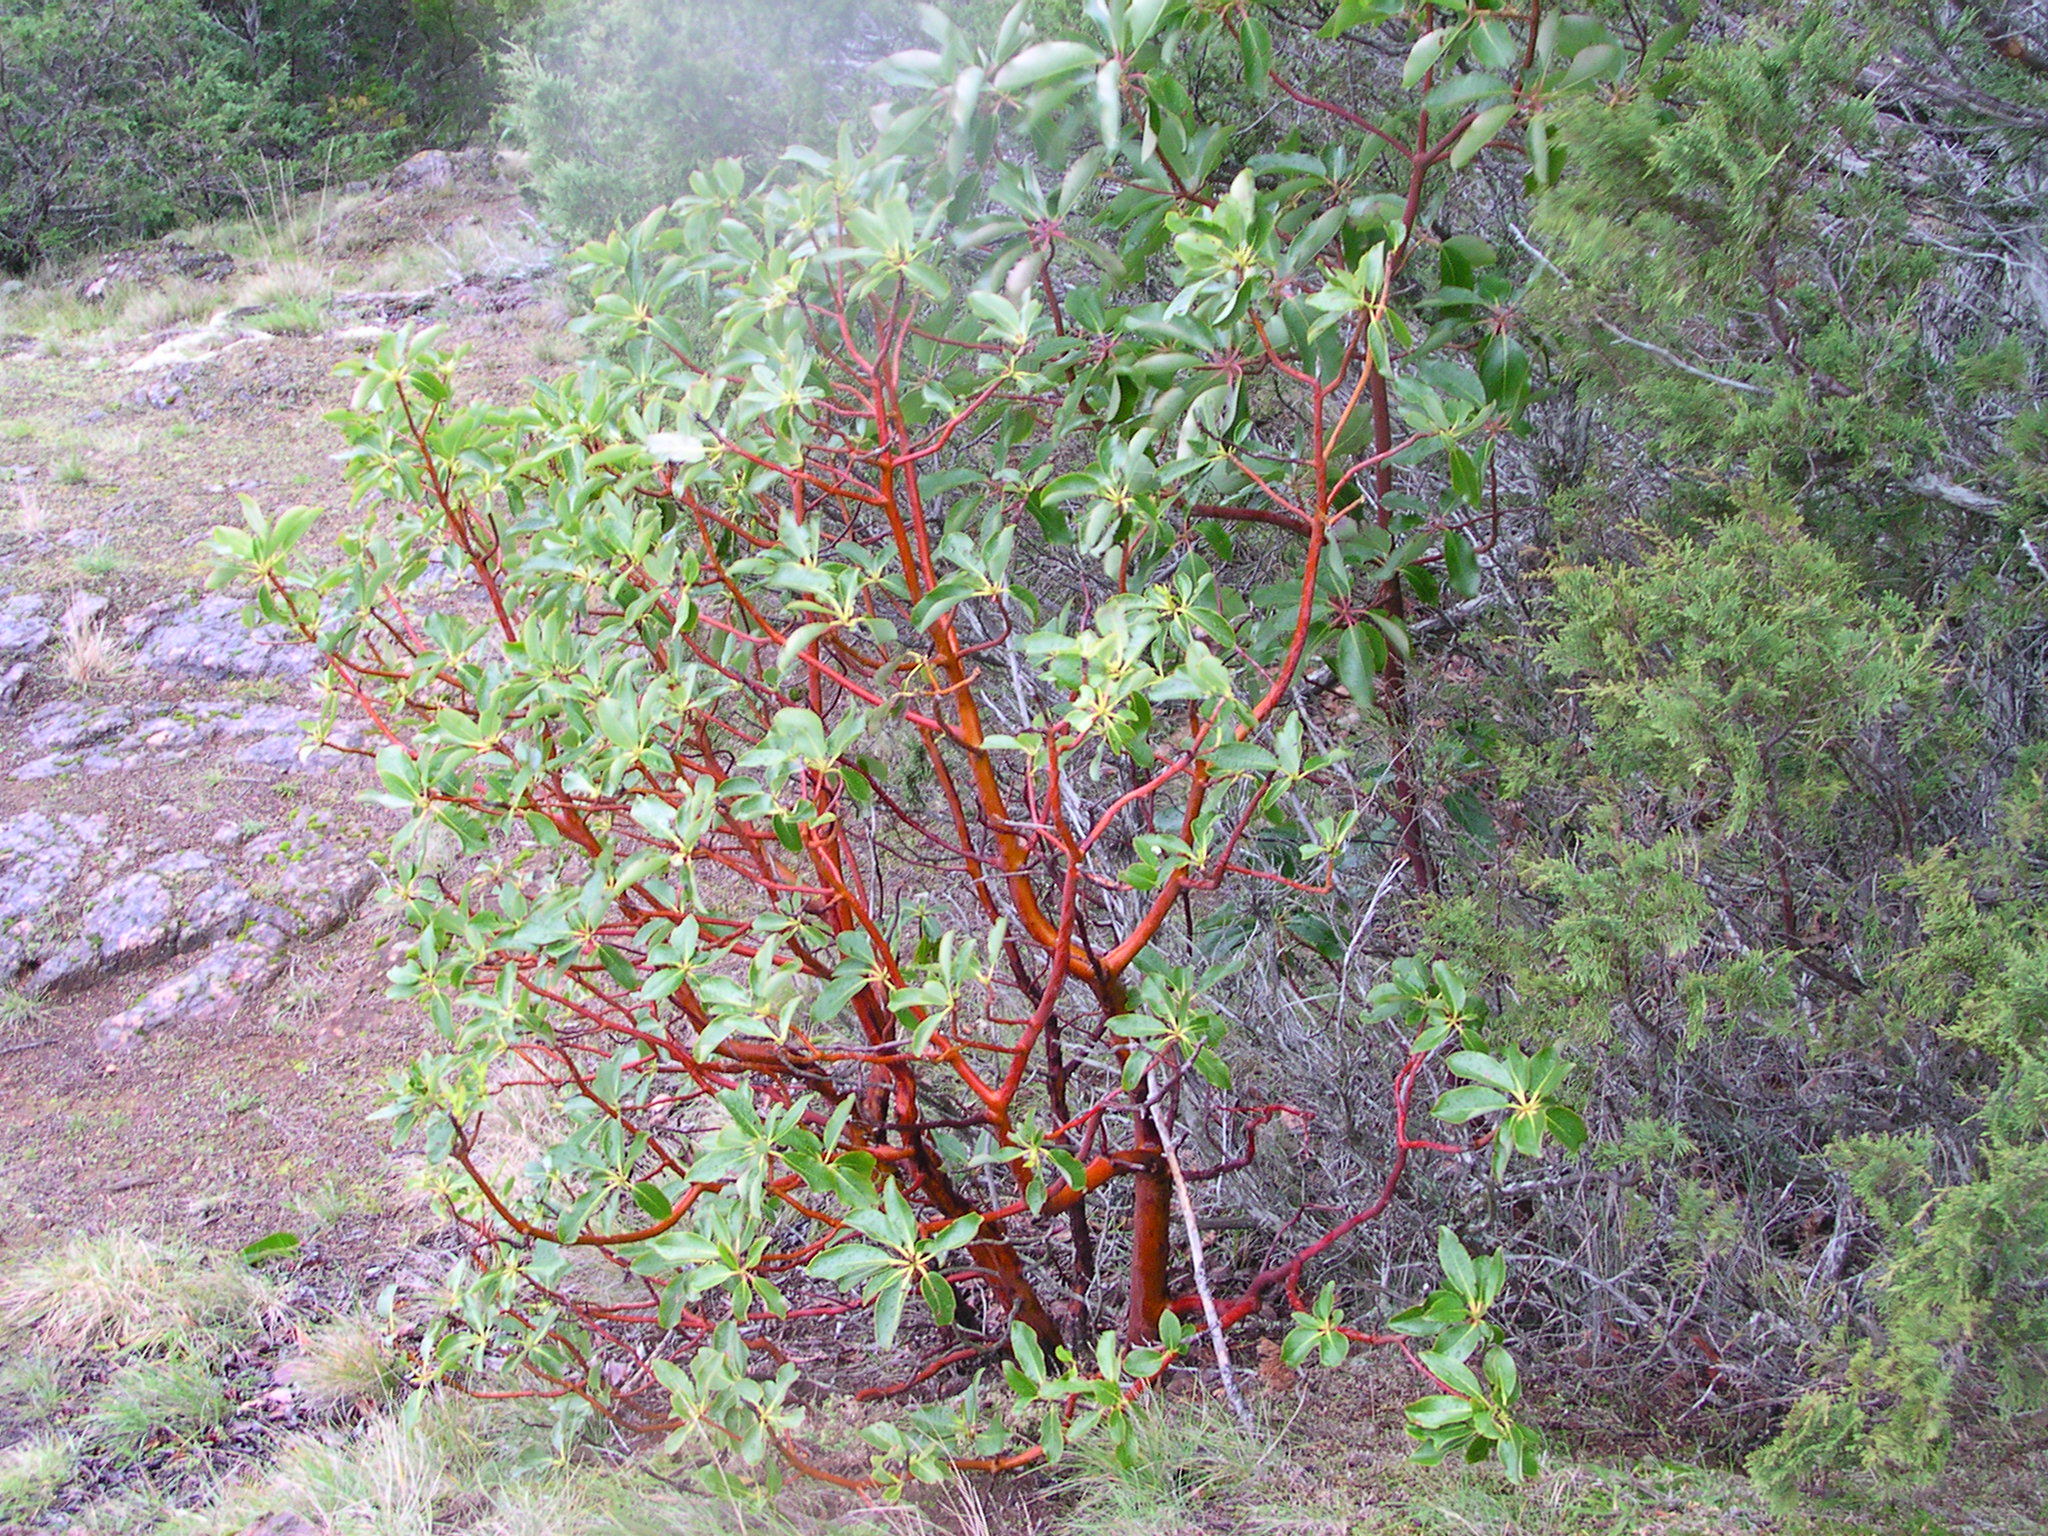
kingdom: Plantae
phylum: Tracheophyta
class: Magnoliopsida
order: Ericales
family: Ericaceae
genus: Arbutus
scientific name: Arbutus menziesii
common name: Pacific madrone
